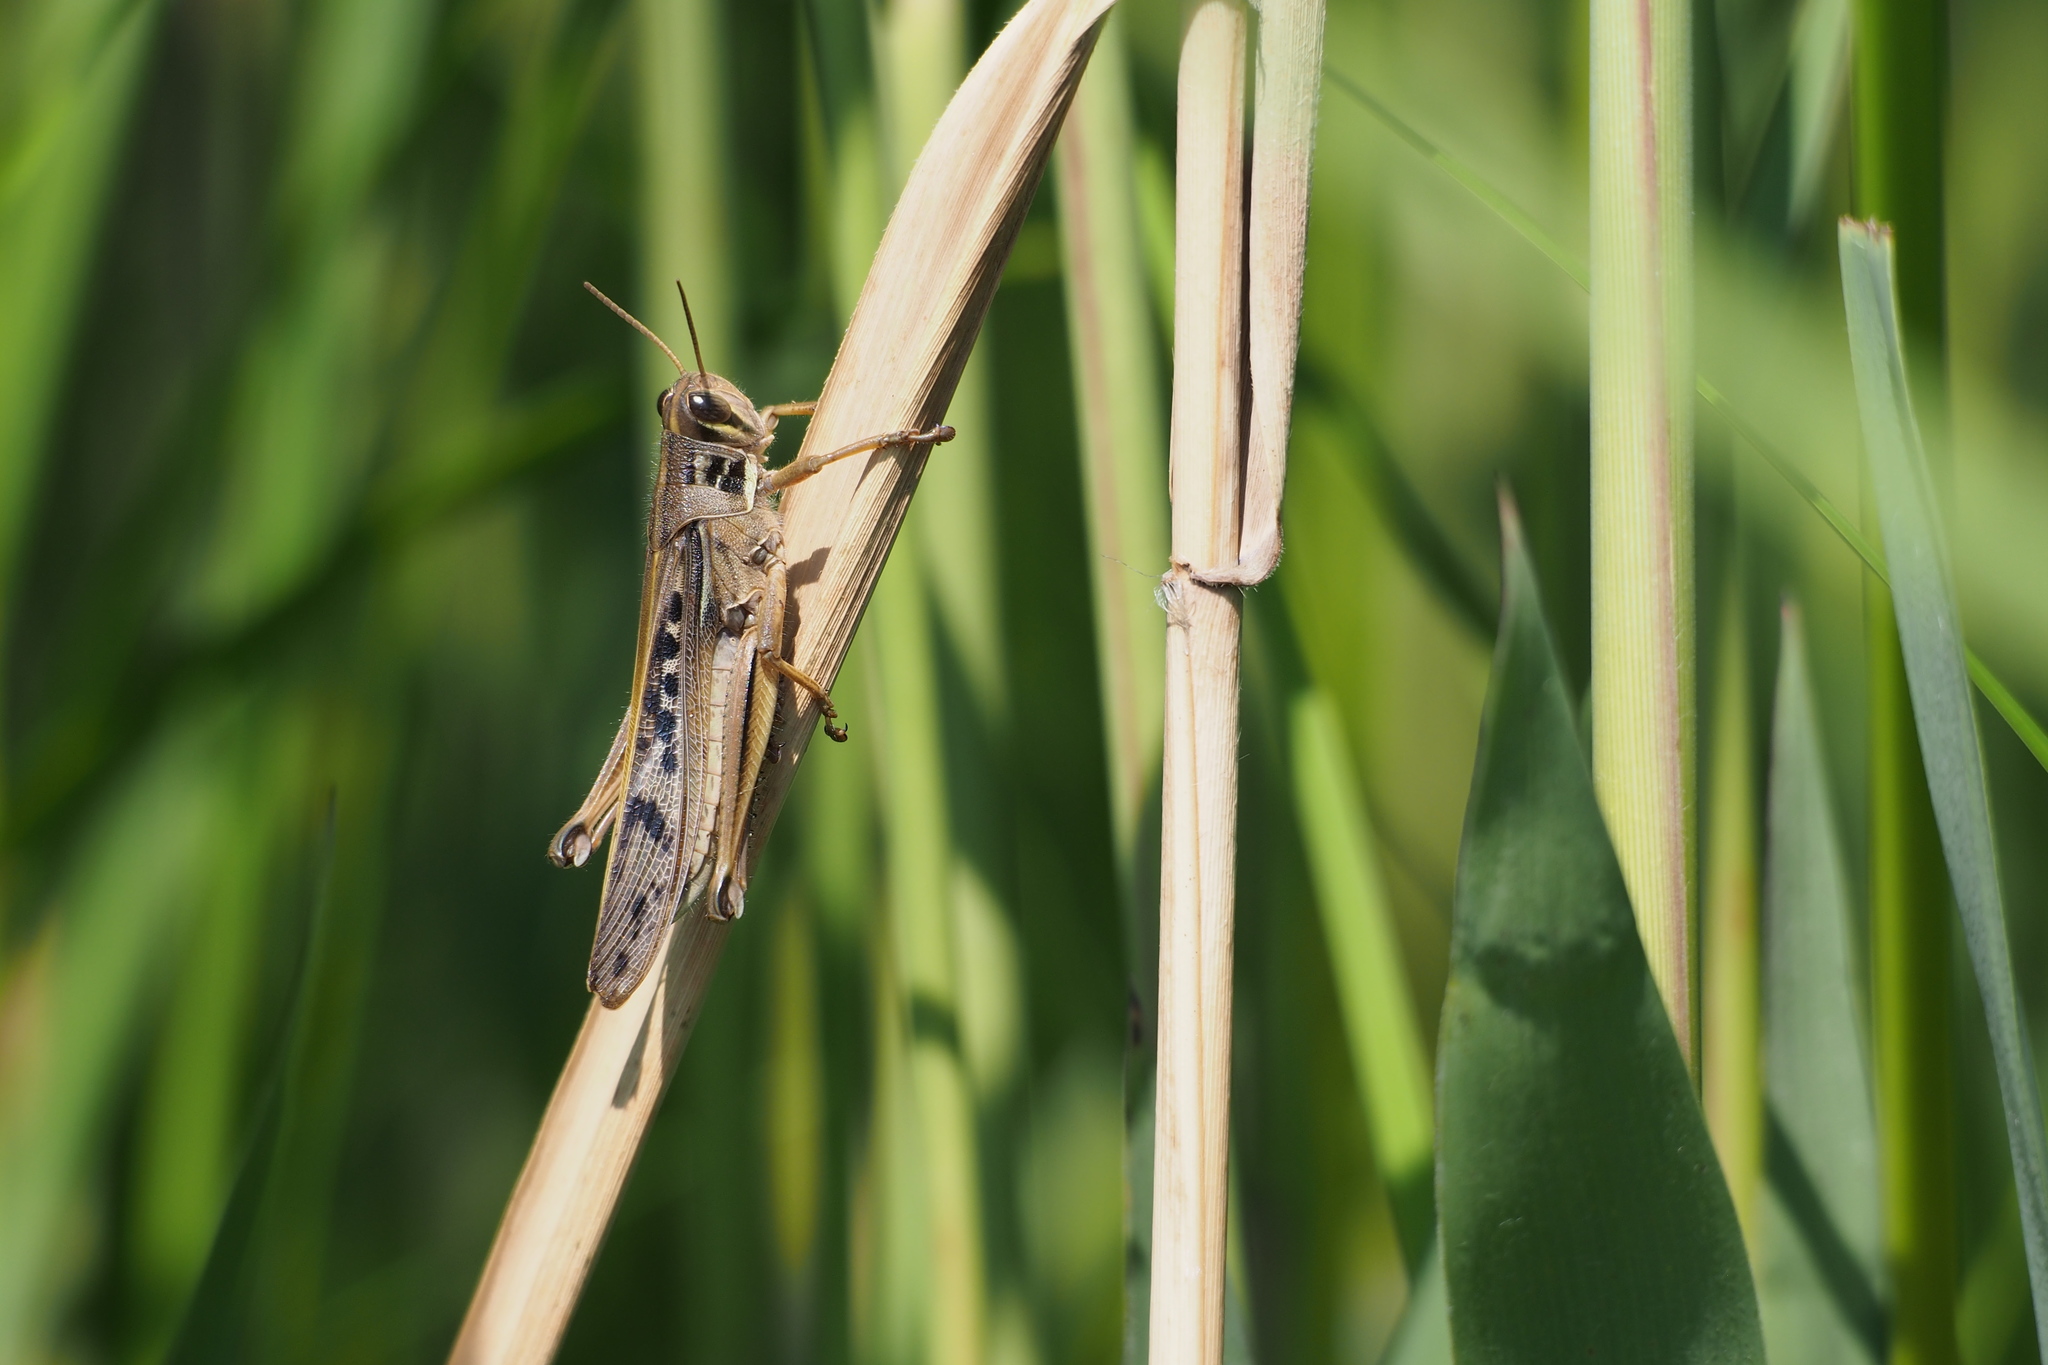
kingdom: Animalia
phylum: Arthropoda
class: Insecta
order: Orthoptera
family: Acrididae
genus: Patanga
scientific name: Patanga japonica
